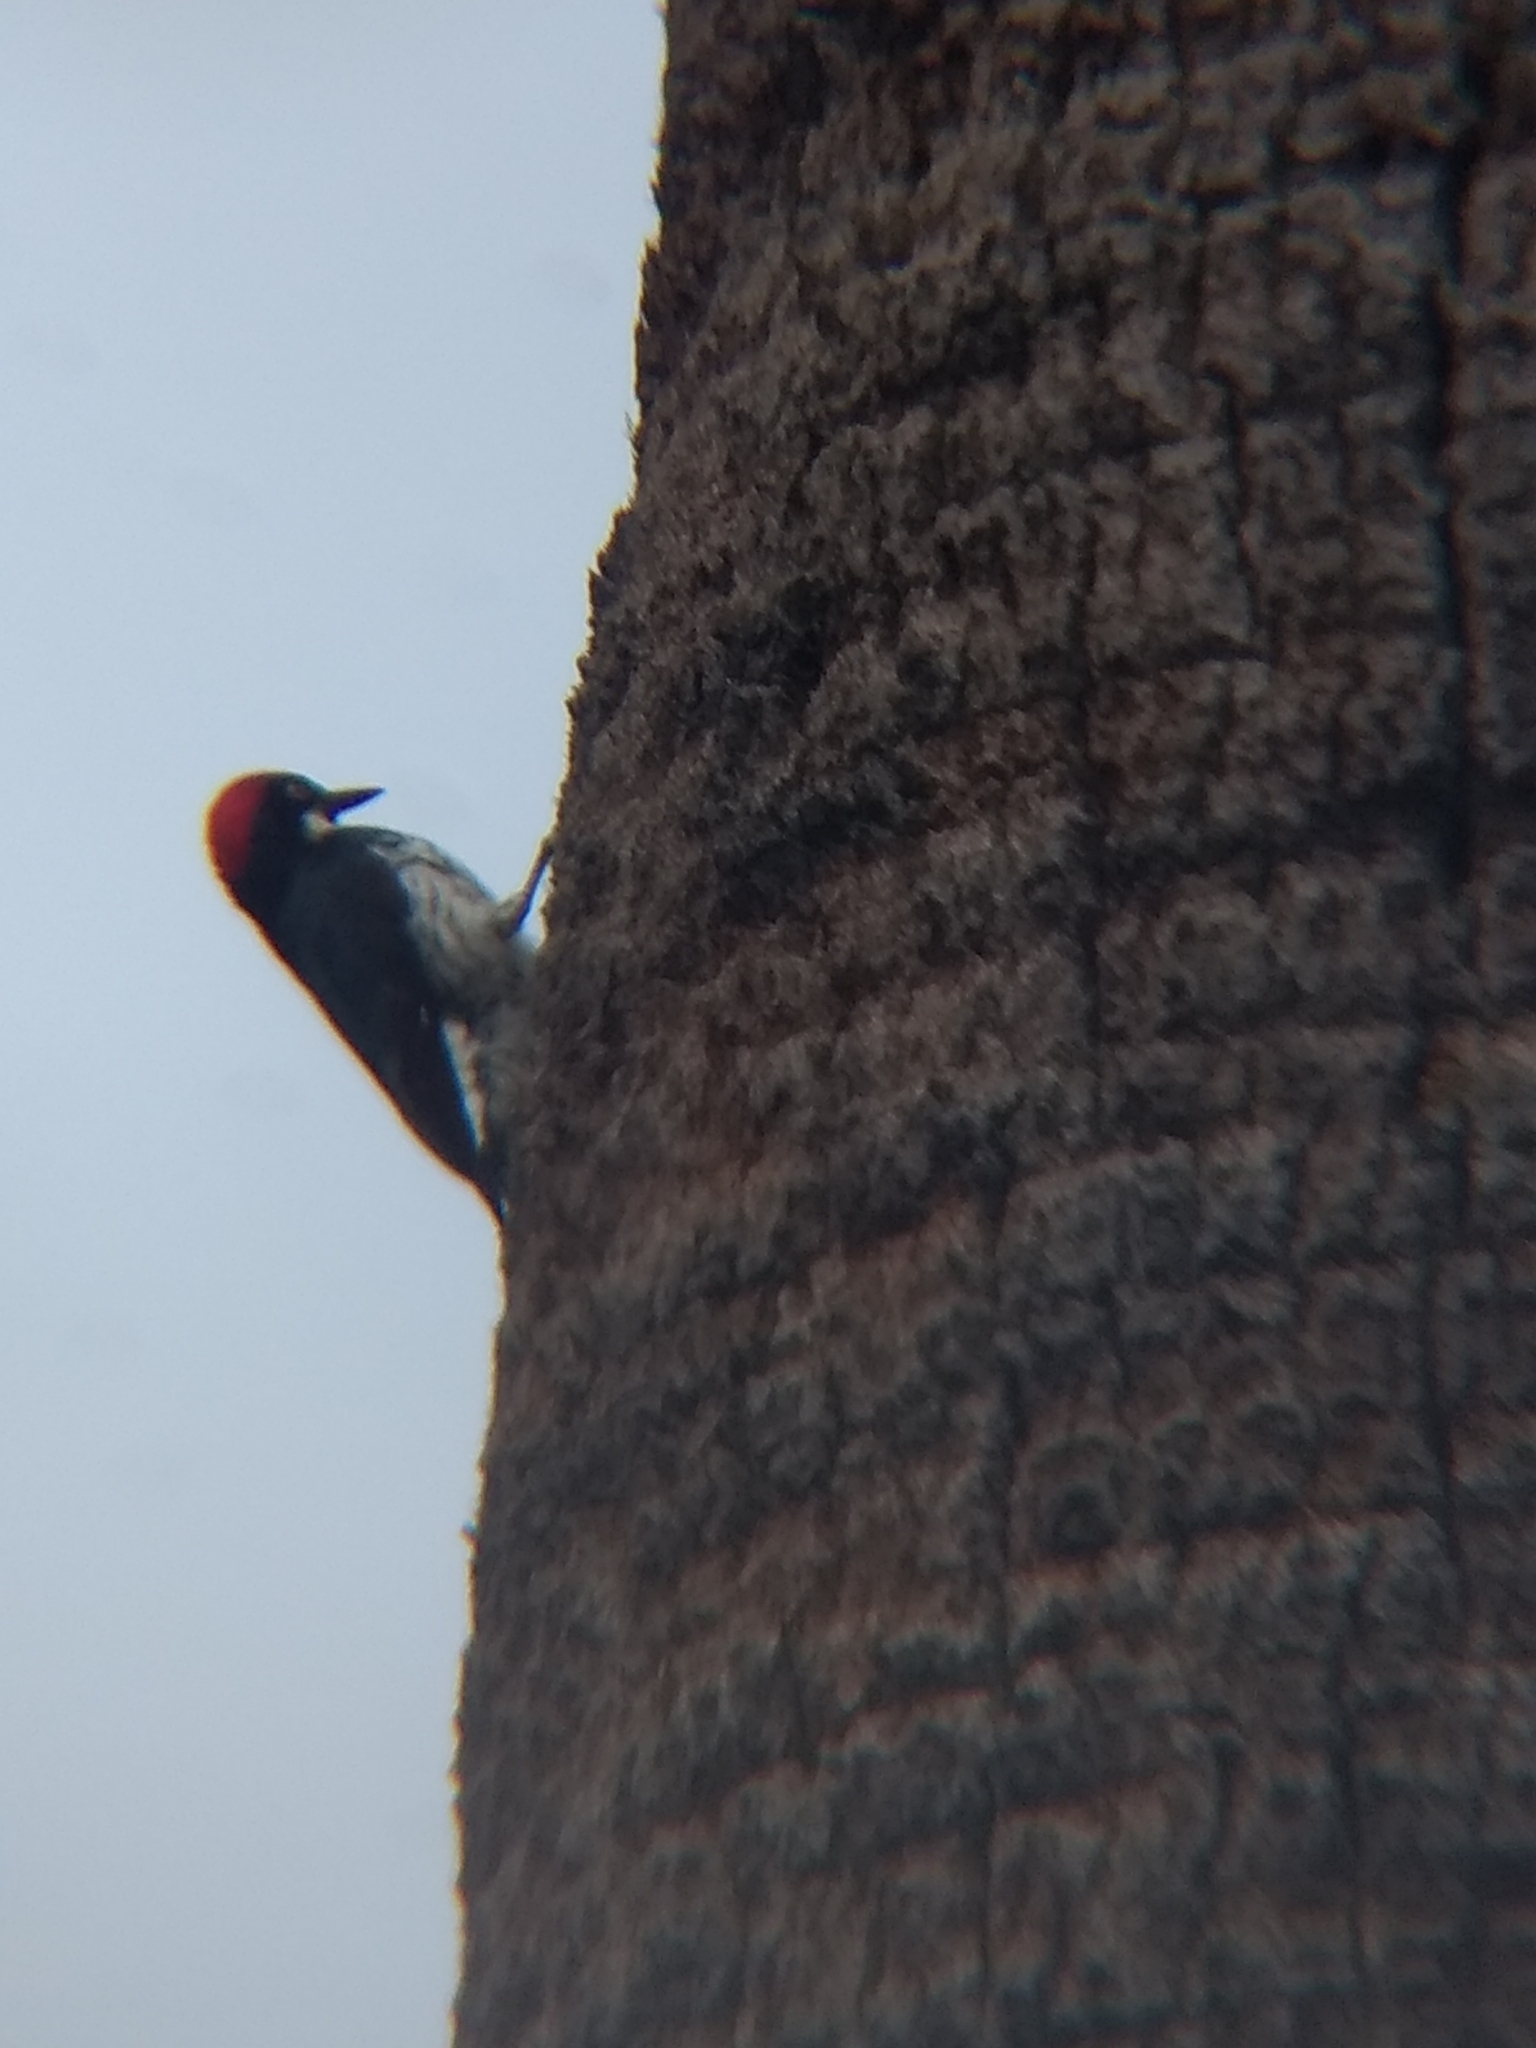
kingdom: Animalia
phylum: Chordata
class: Aves
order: Piciformes
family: Picidae
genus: Melanerpes
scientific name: Melanerpes formicivorus
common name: Acorn woodpecker
